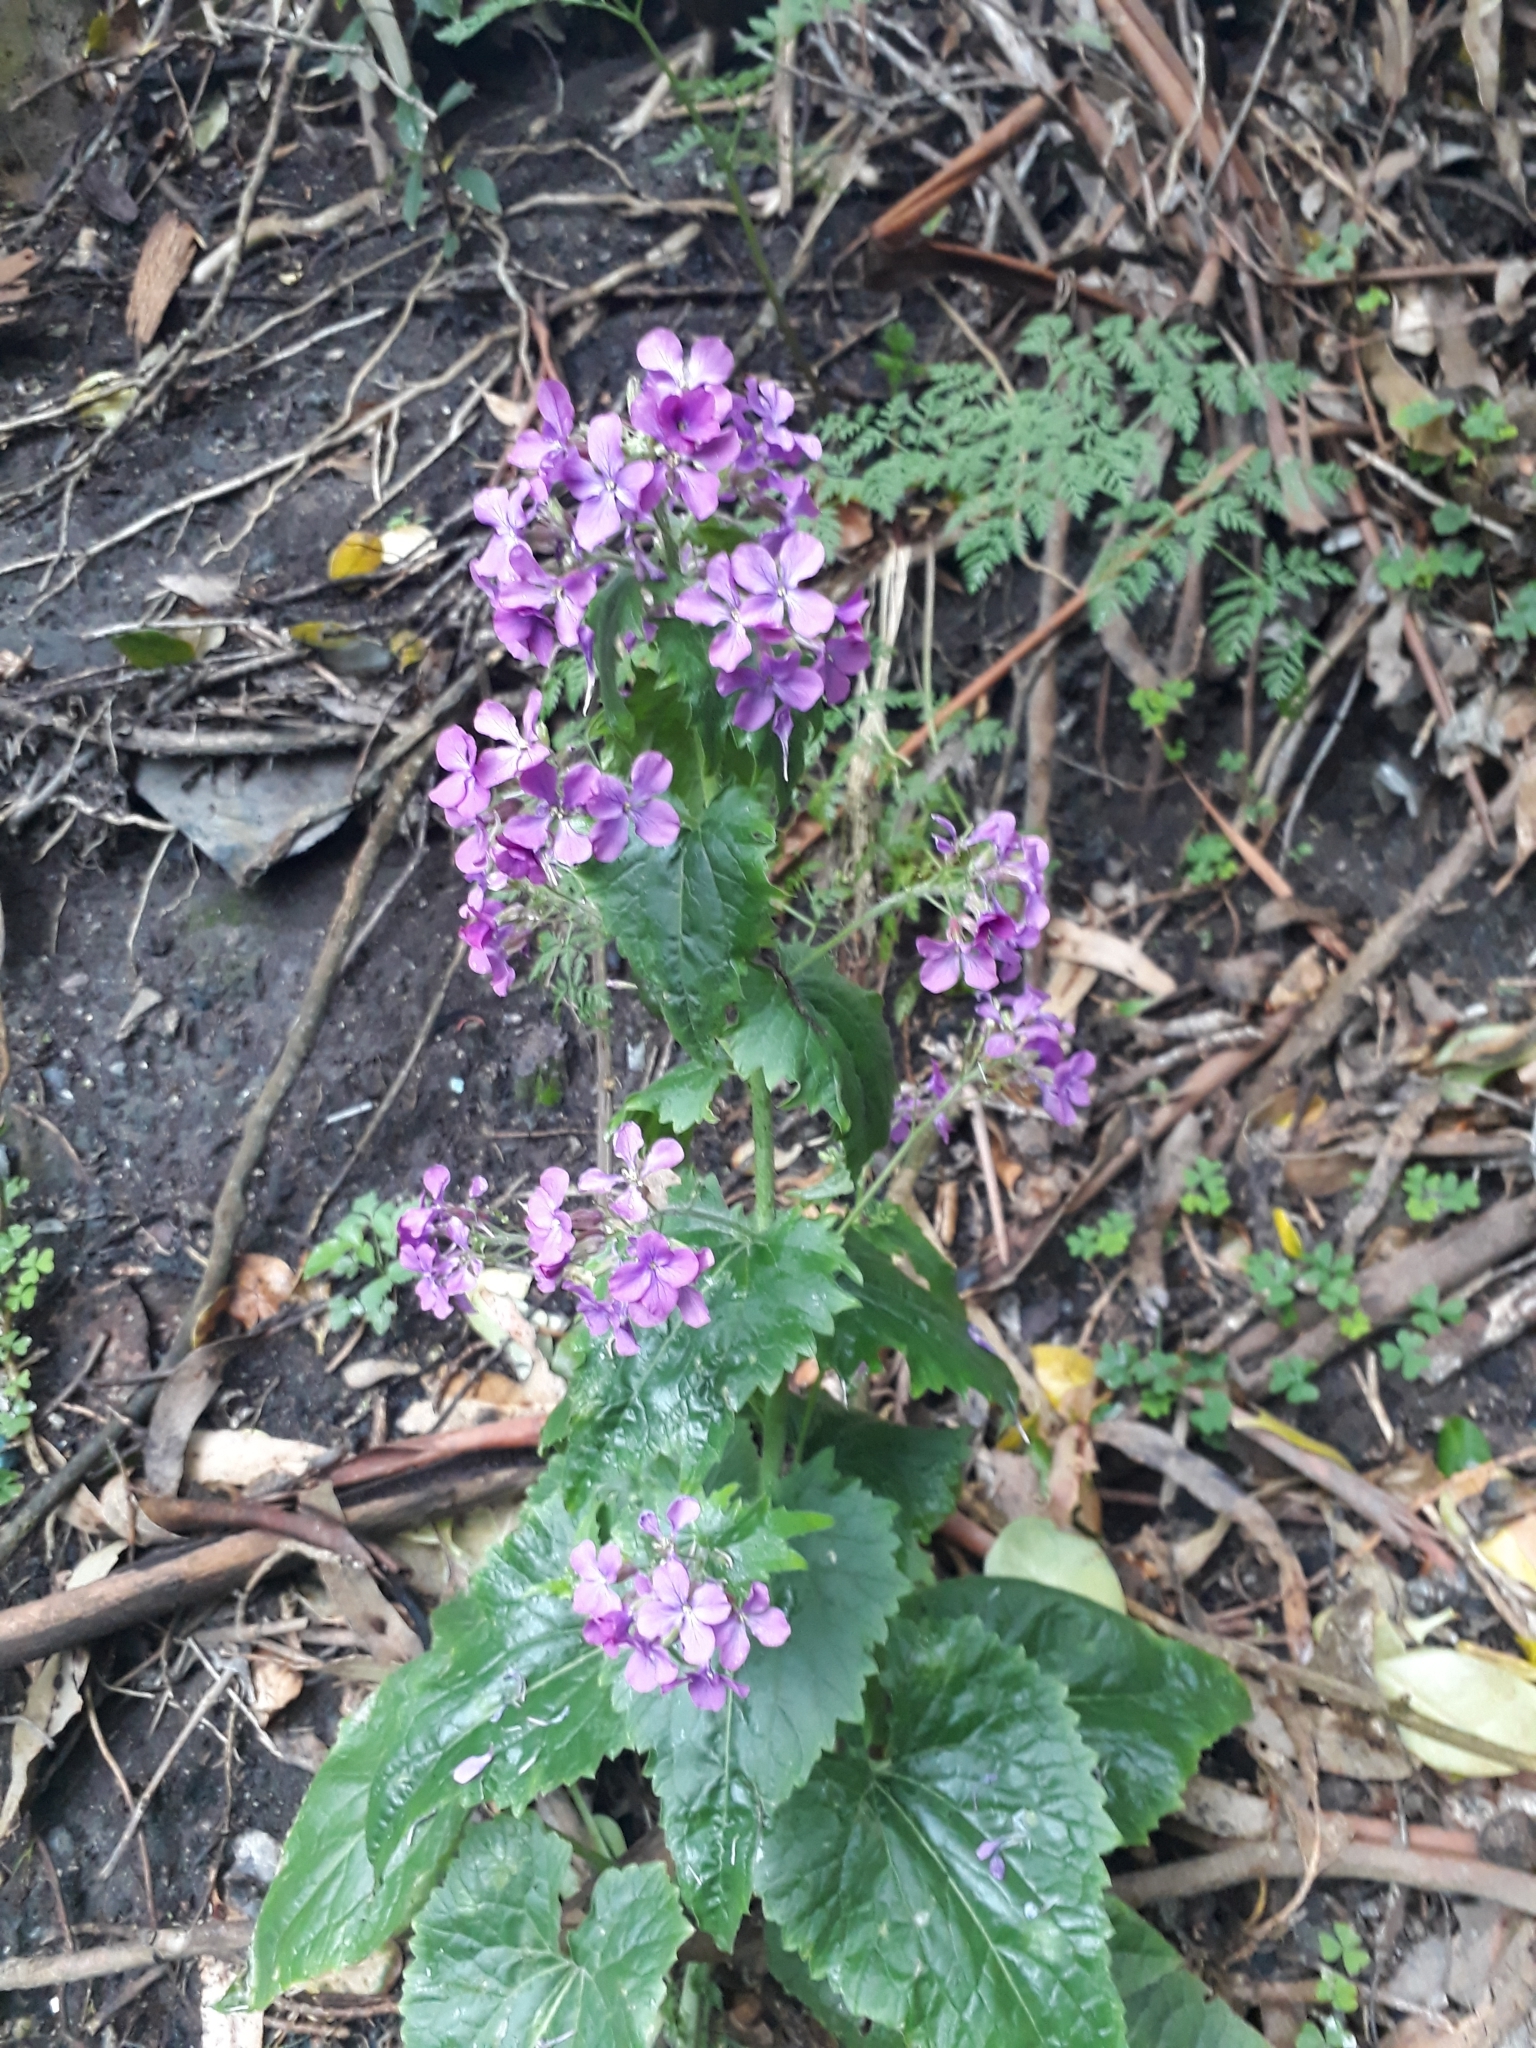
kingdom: Plantae
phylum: Tracheophyta
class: Magnoliopsida
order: Brassicales
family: Brassicaceae
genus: Lunaria
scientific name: Lunaria annua
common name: Honesty
